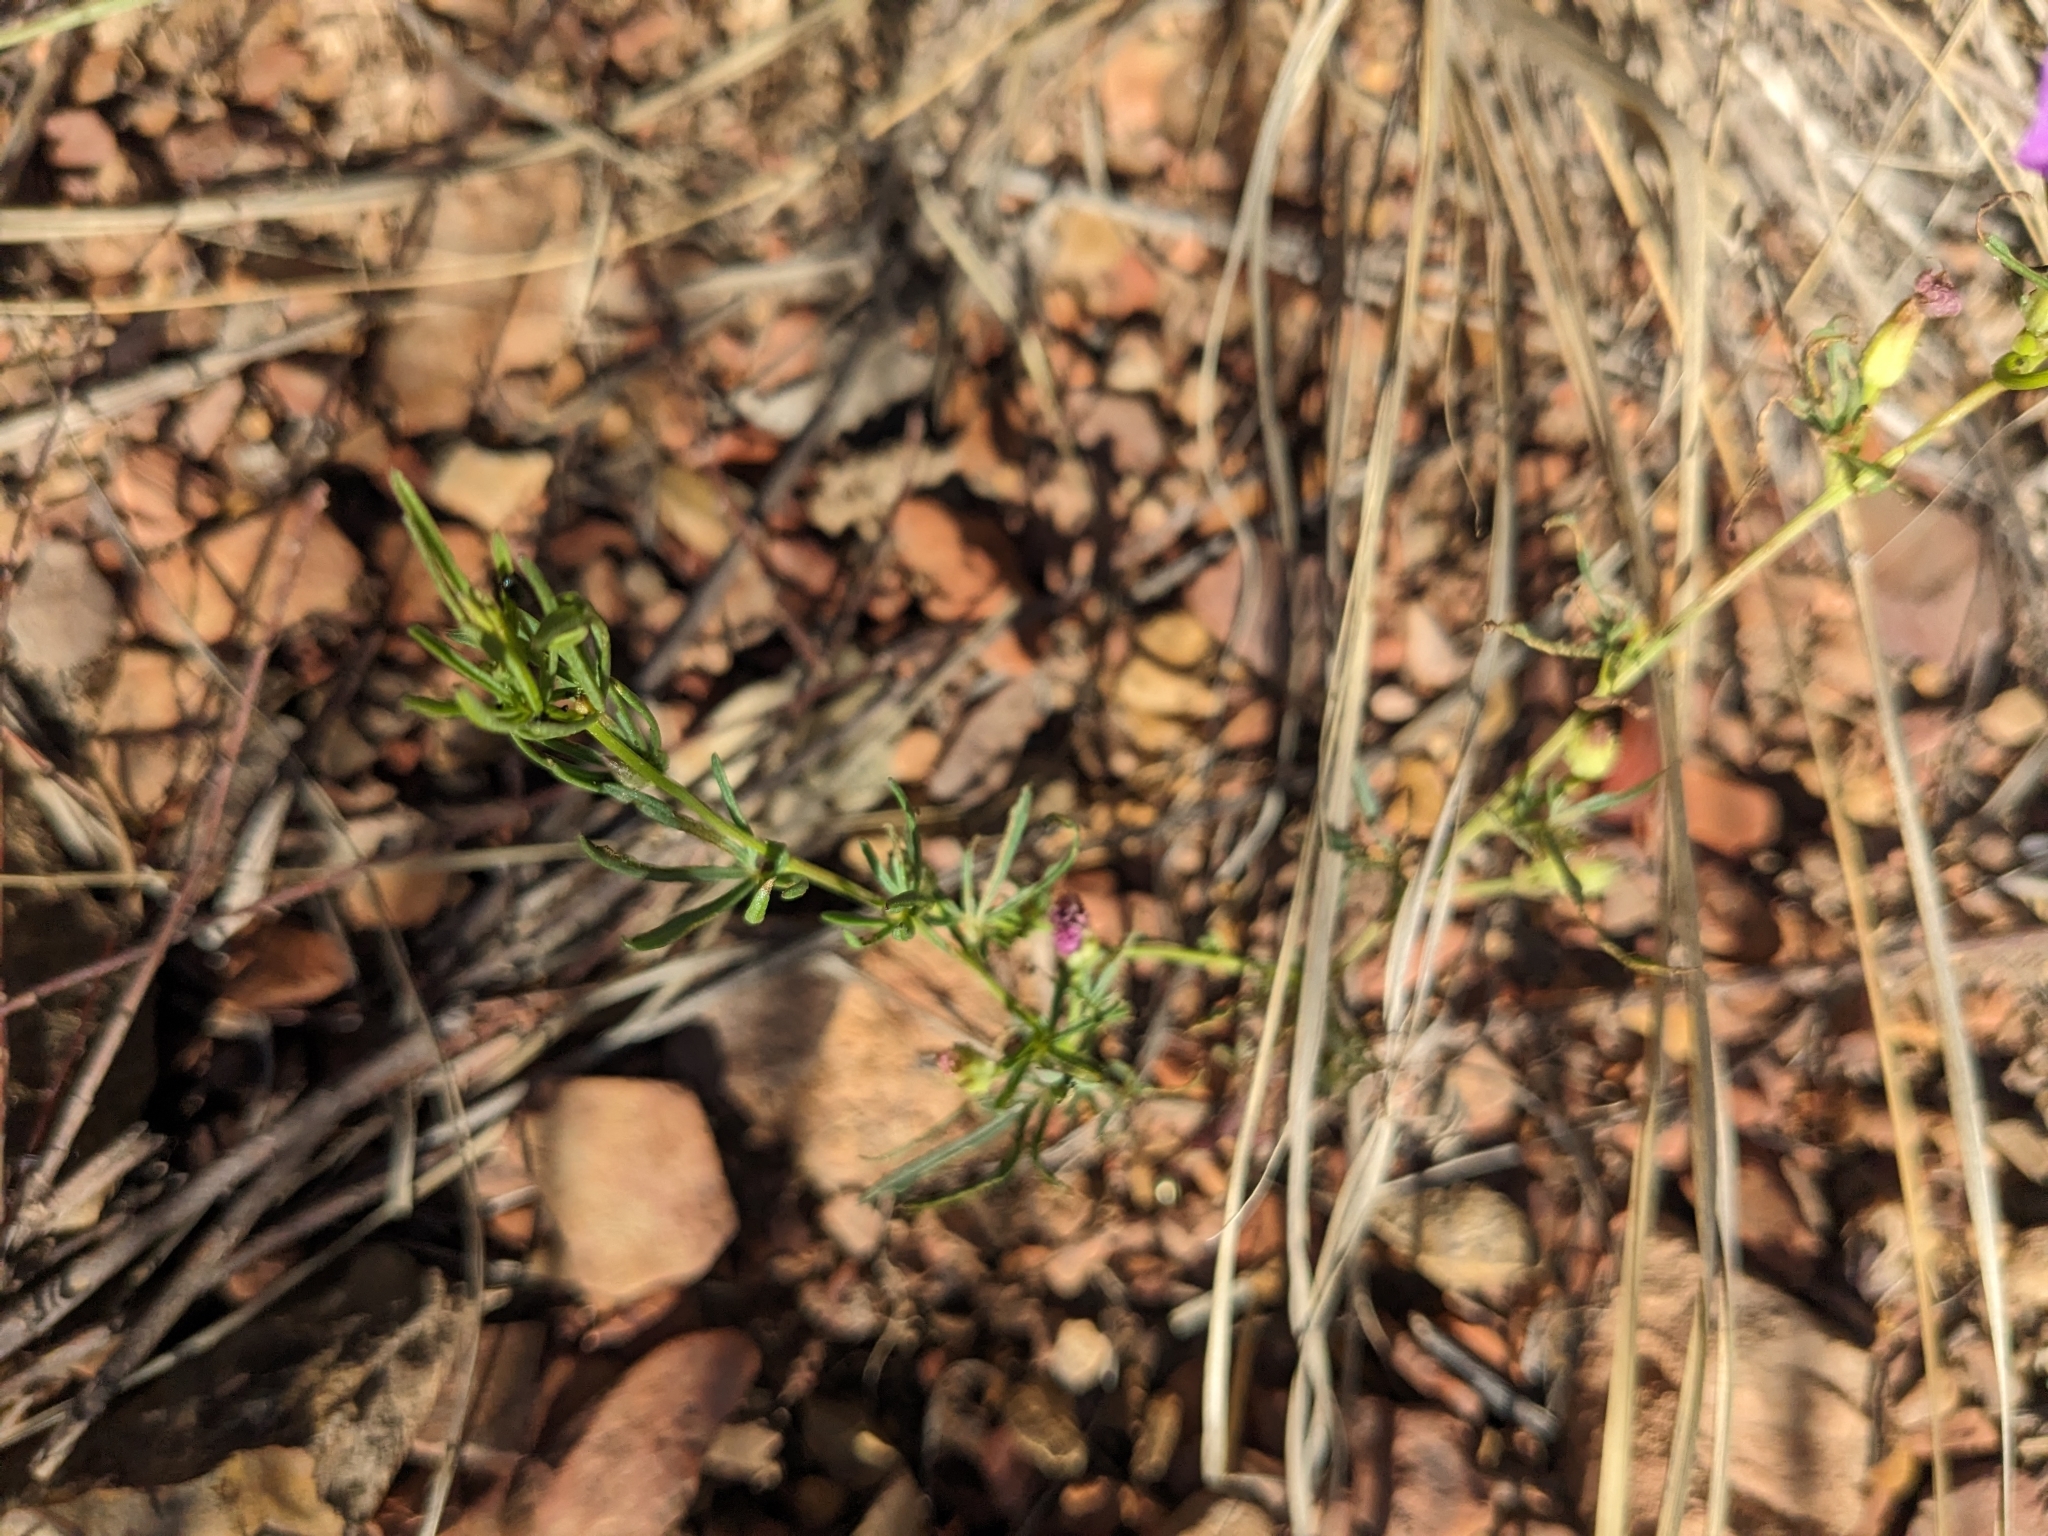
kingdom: Plantae
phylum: Tracheophyta
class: Magnoliopsida
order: Solanales
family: Convolvulaceae
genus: Ipomoea
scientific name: Ipomoea plummerae
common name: Plummer's morning-glory
